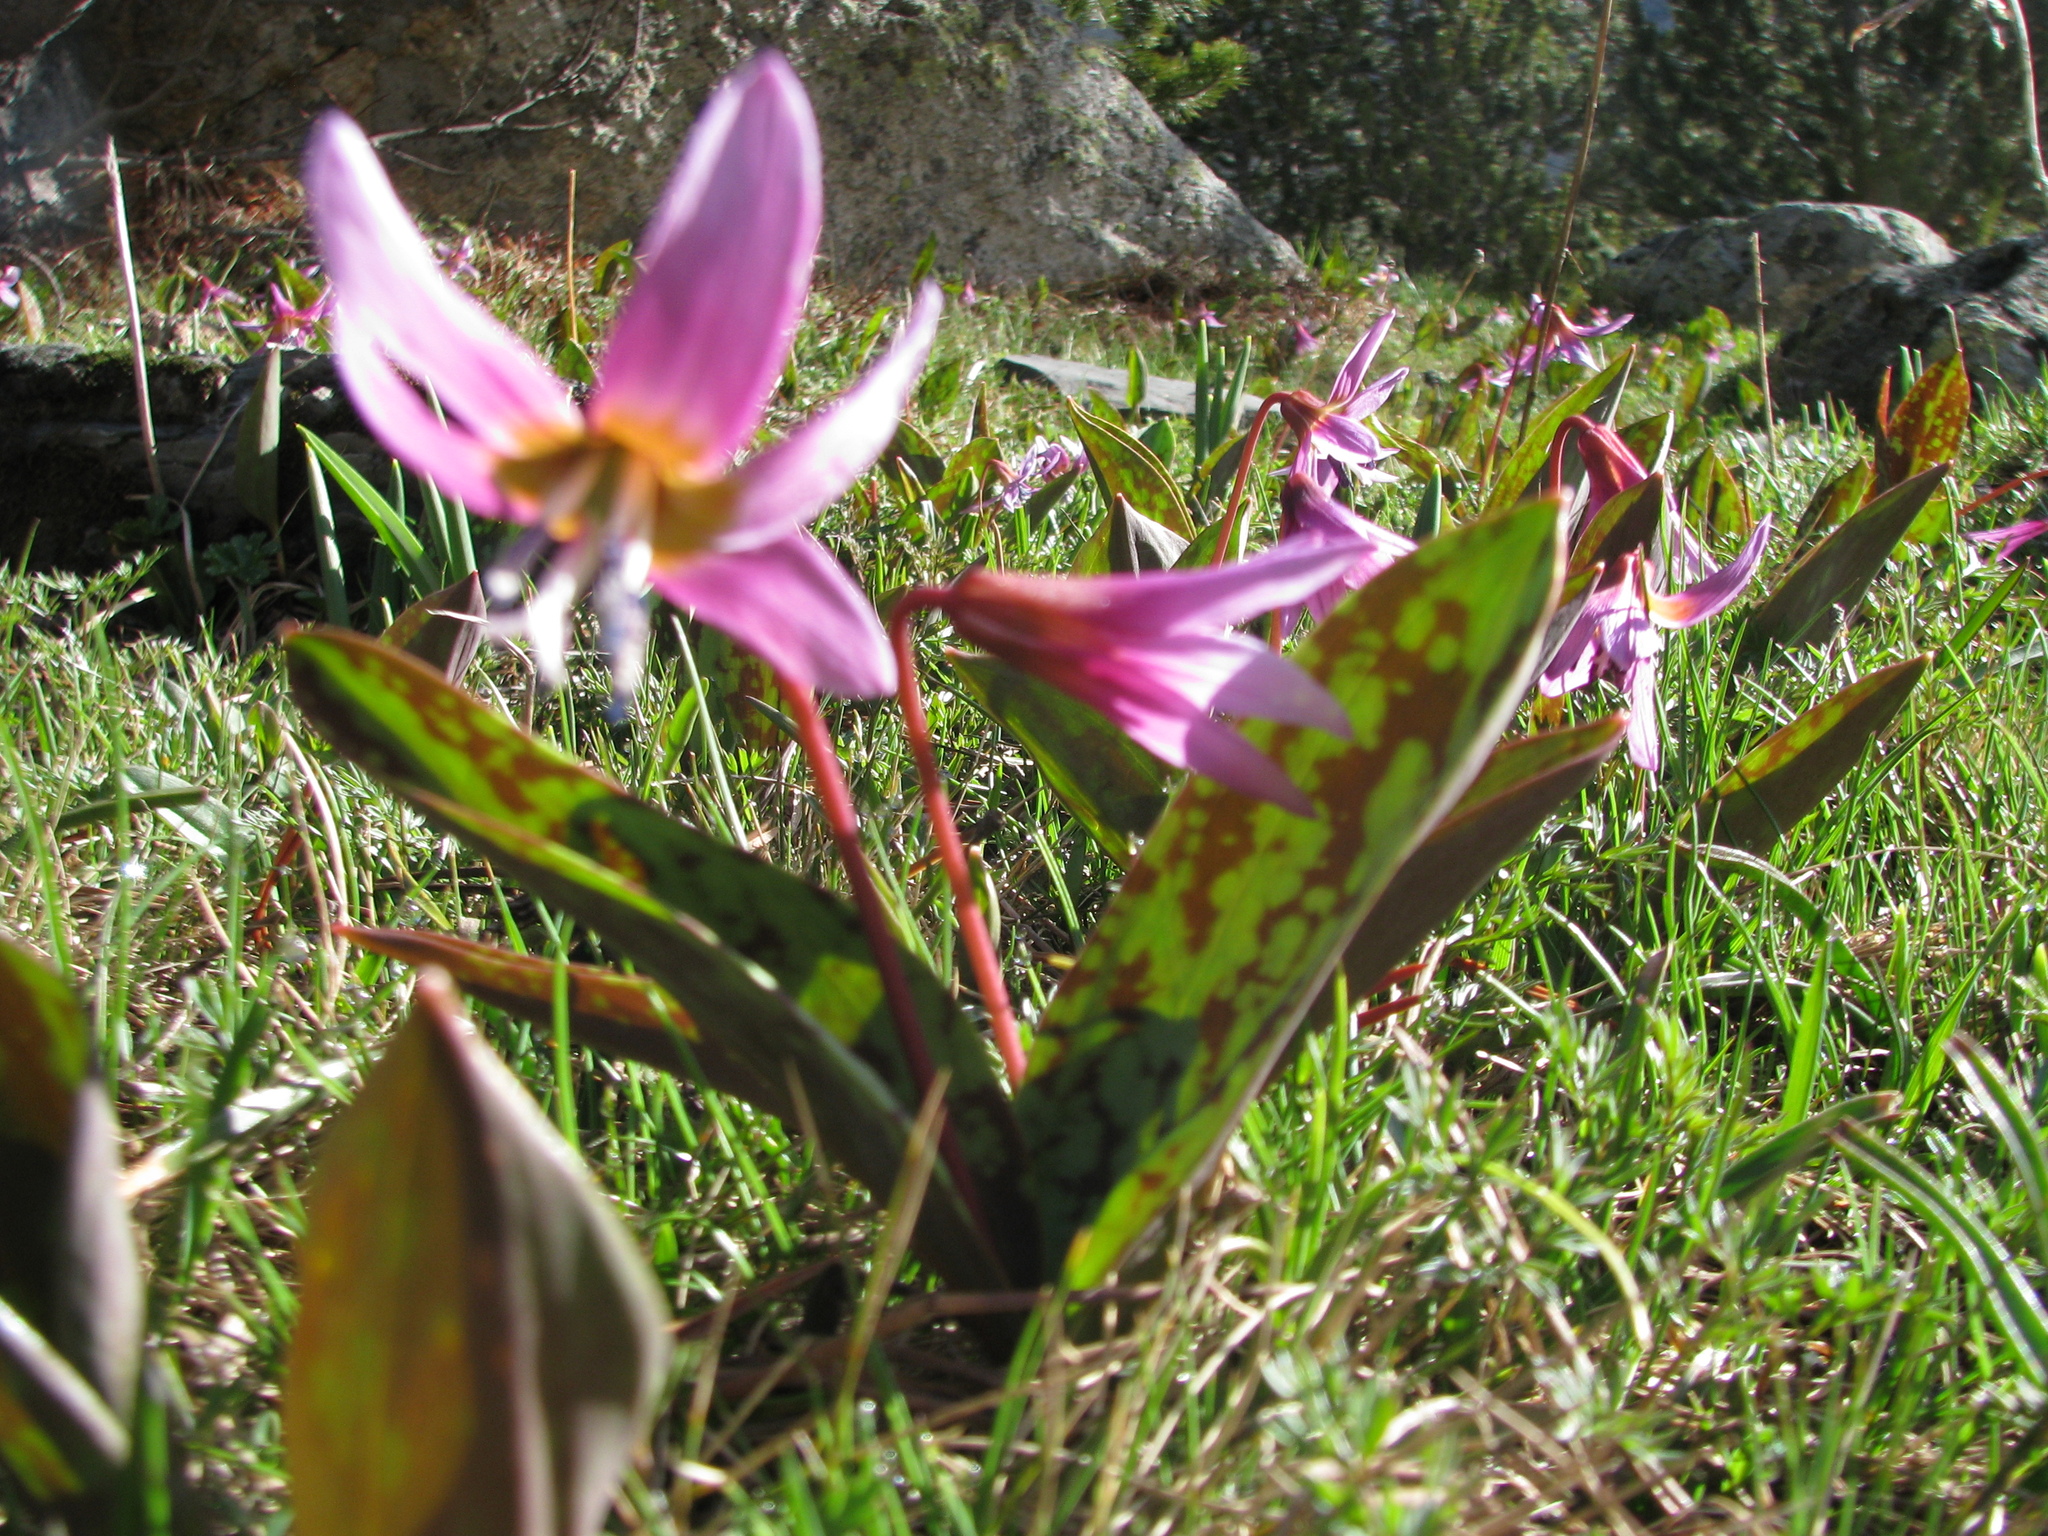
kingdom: Plantae
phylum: Tracheophyta
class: Liliopsida
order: Liliales
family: Liliaceae
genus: Erythronium
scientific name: Erythronium dens-canis
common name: Dog's-tooth-violet
